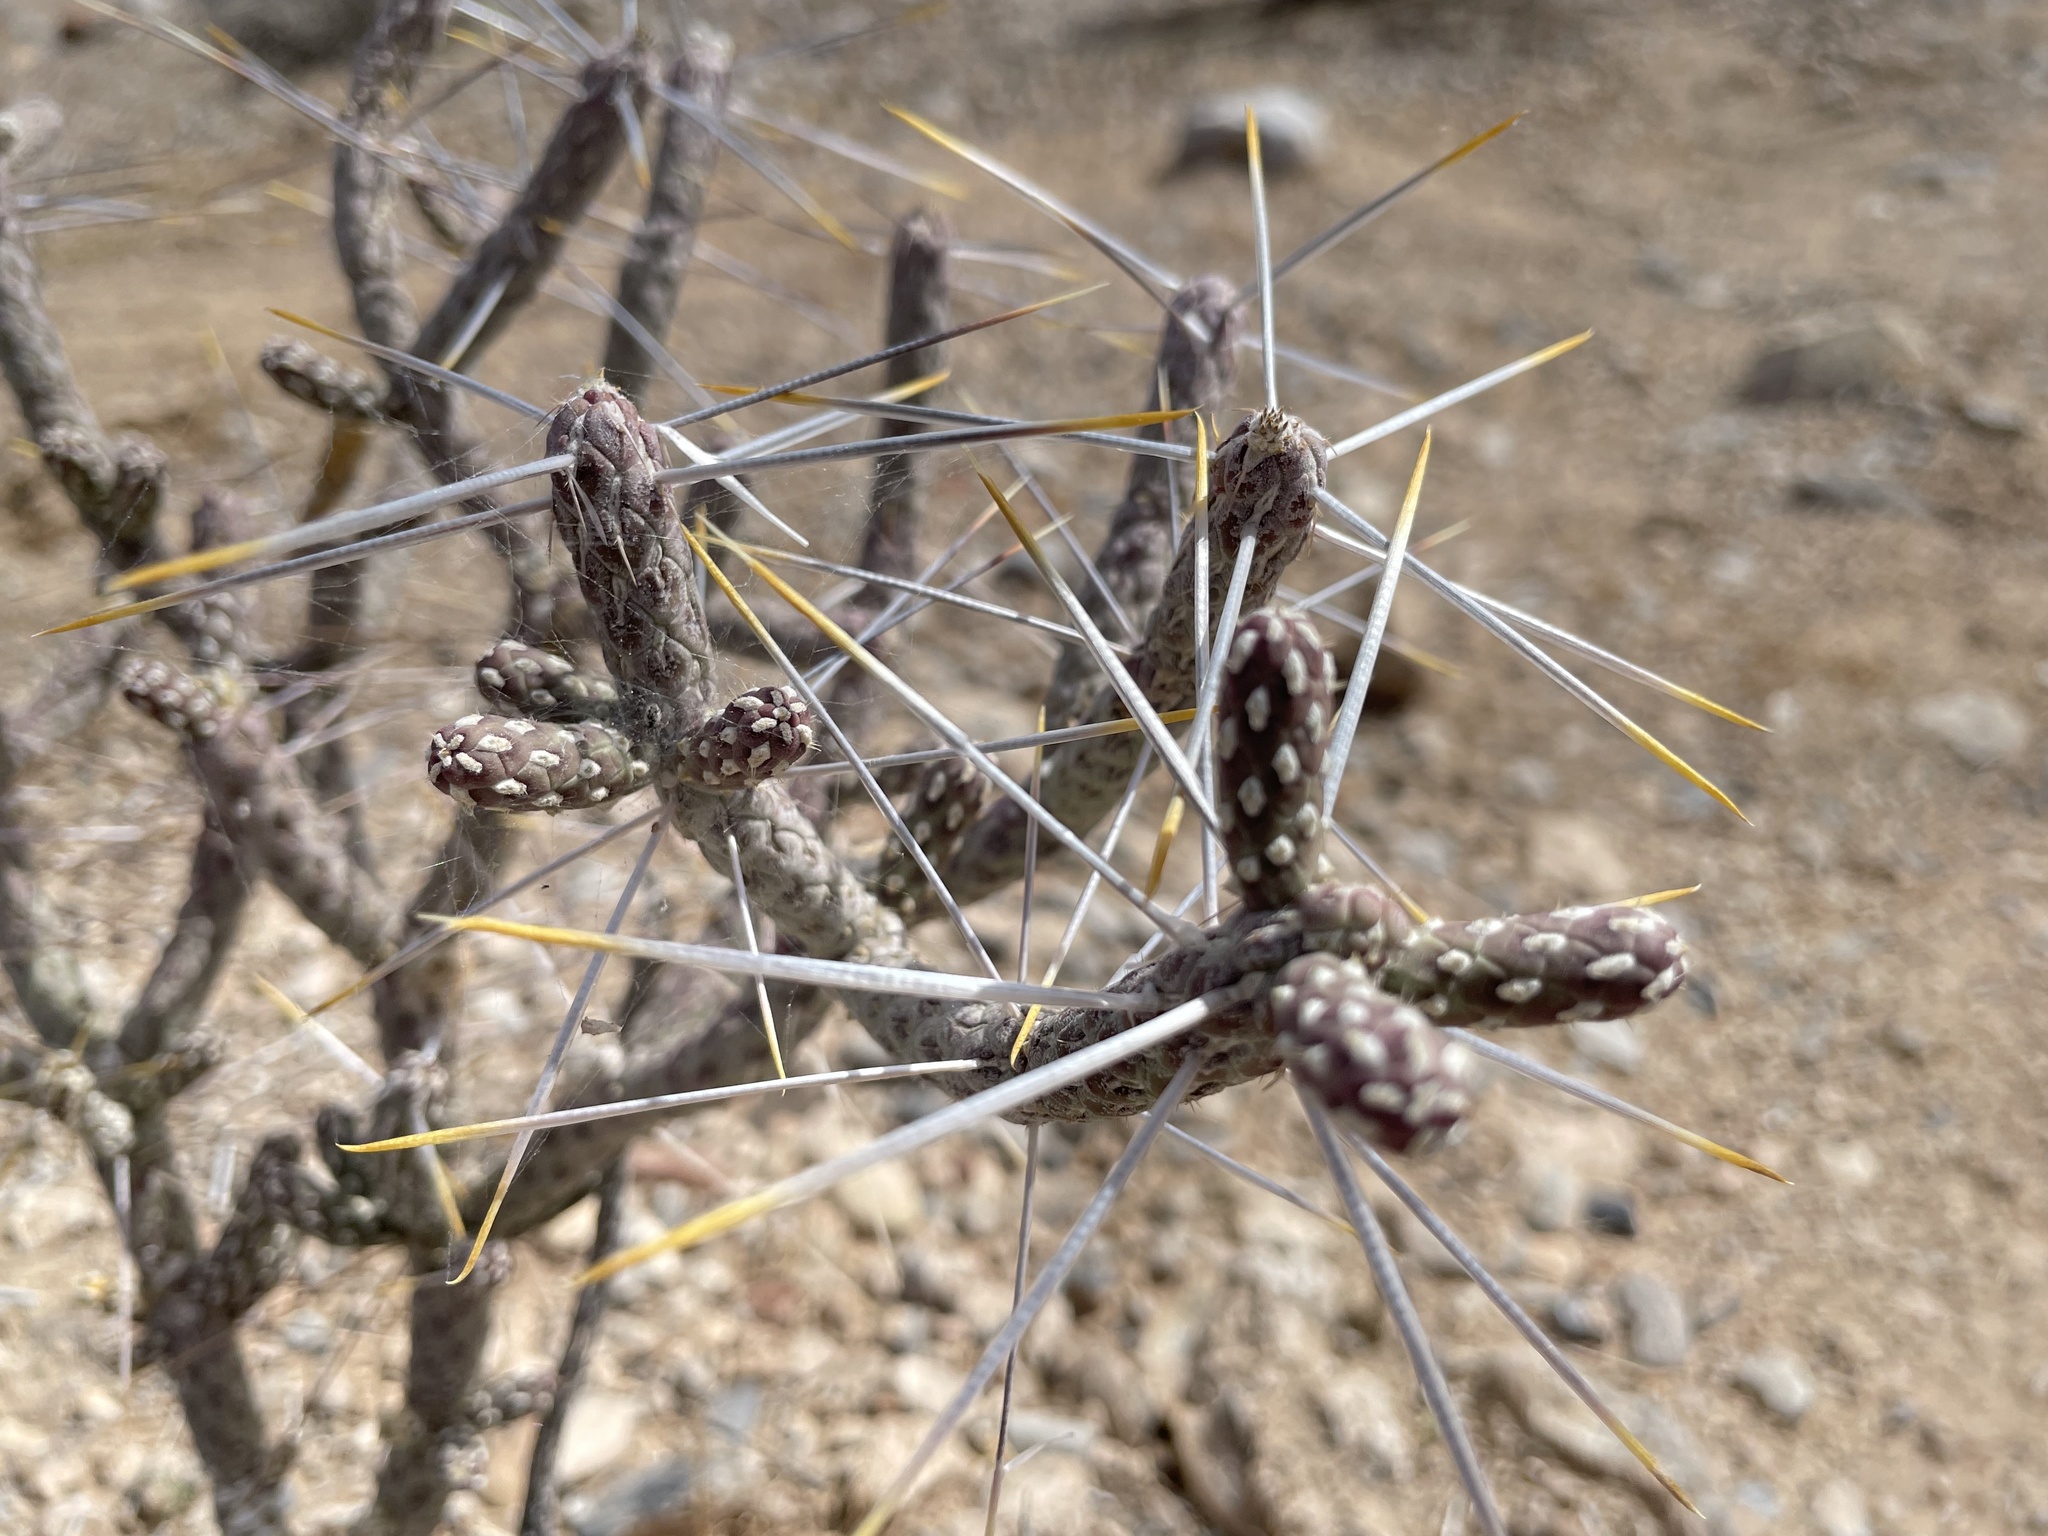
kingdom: Plantae
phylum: Tracheophyta
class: Magnoliopsida
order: Caryophyllales
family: Cactaceae
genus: Cylindropuntia
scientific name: Cylindropuntia ramosissima
